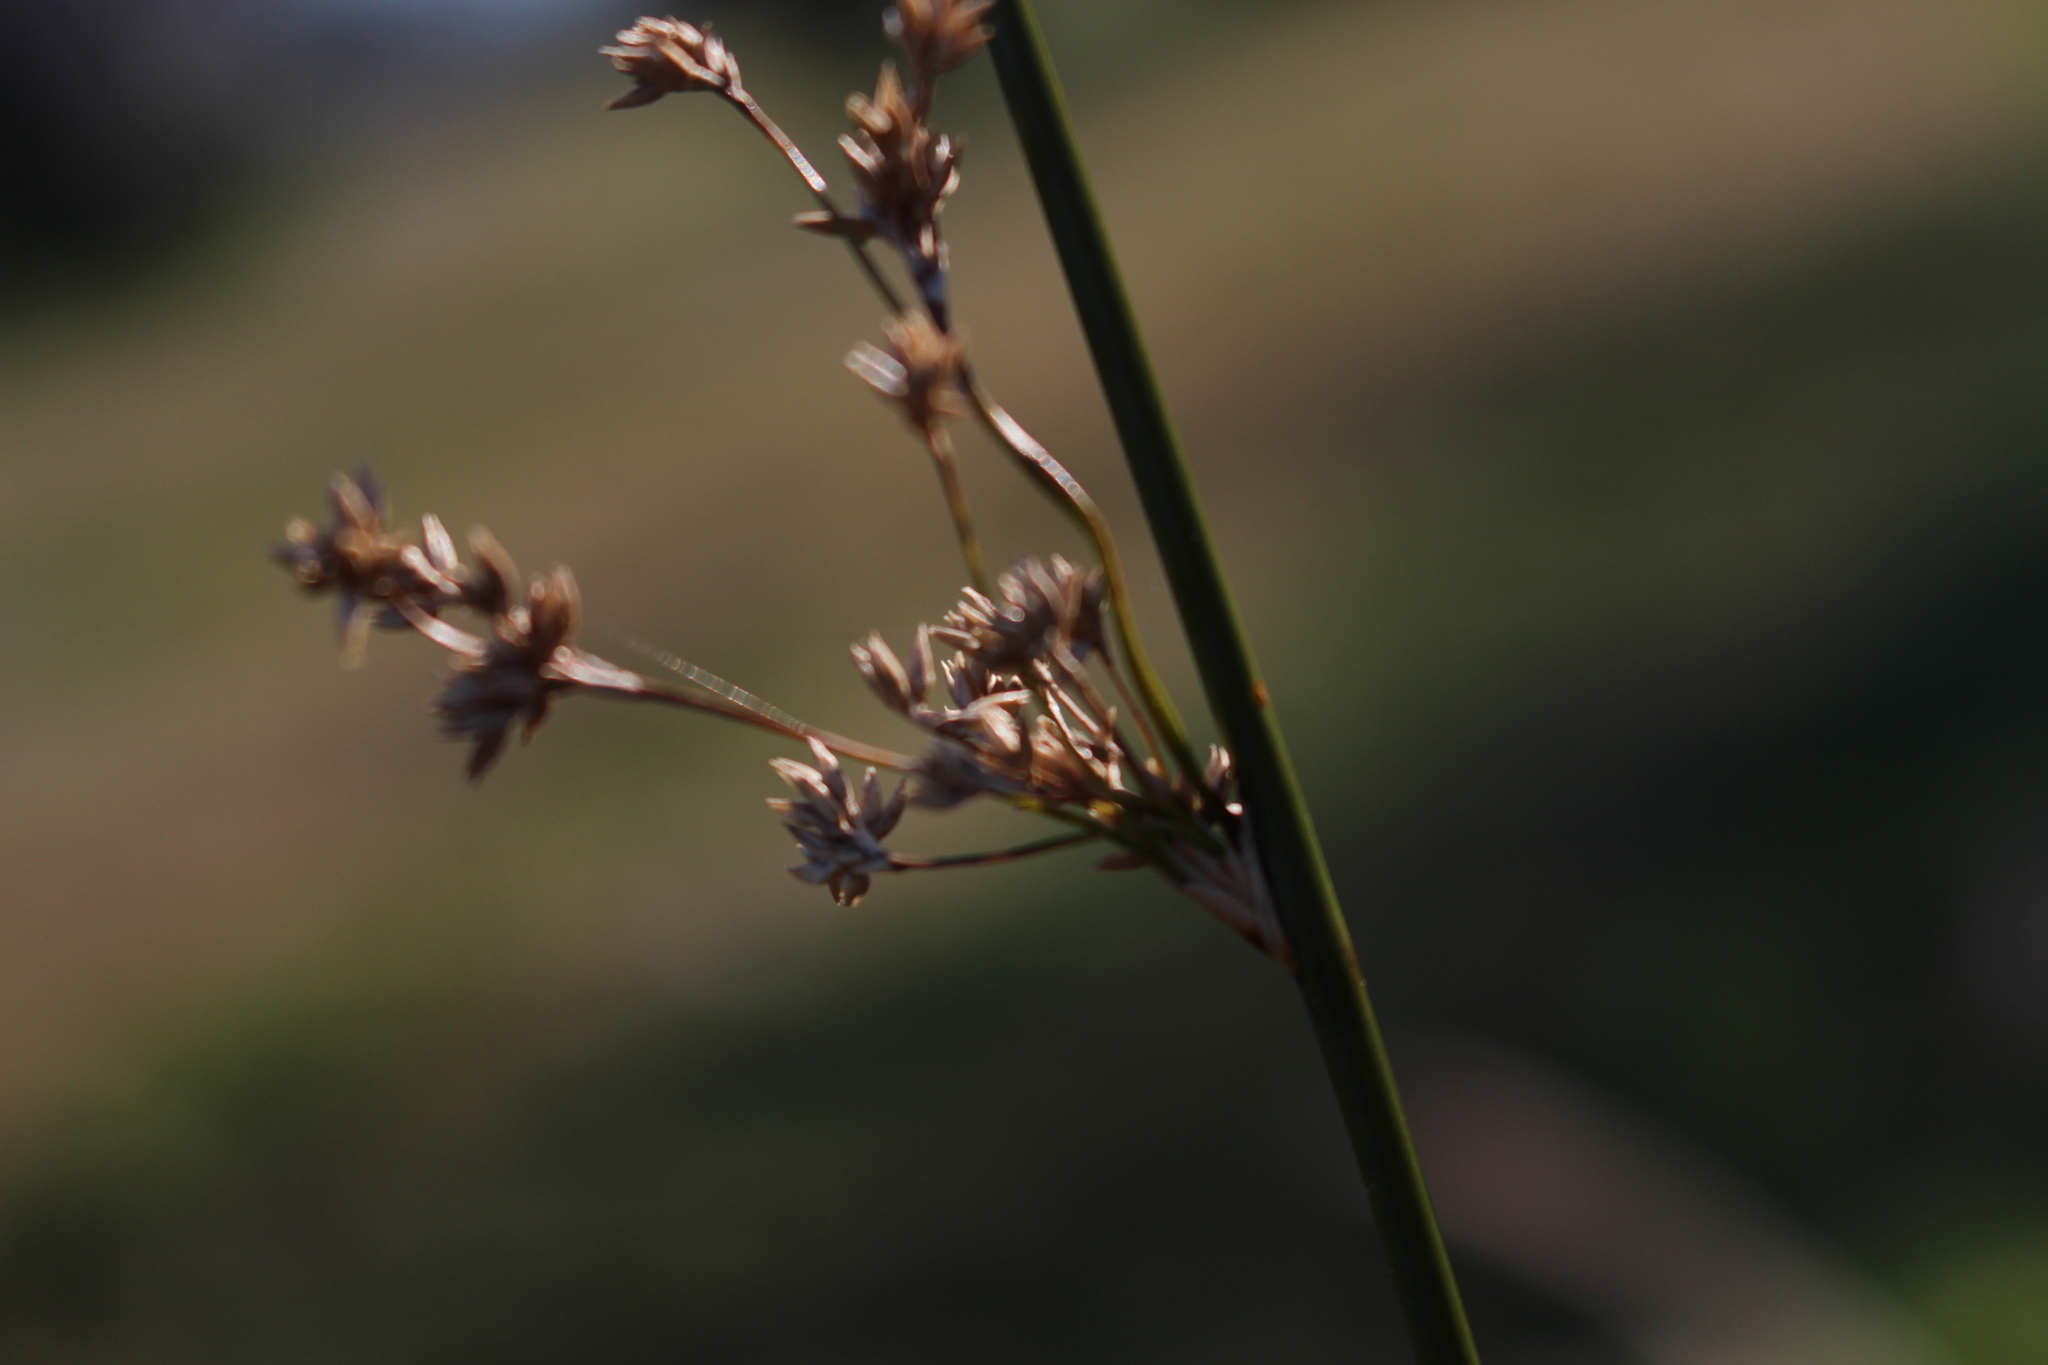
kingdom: Plantae
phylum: Tracheophyta
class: Liliopsida
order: Poales
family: Juncaceae
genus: Juncus
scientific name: Juncus edgariae
